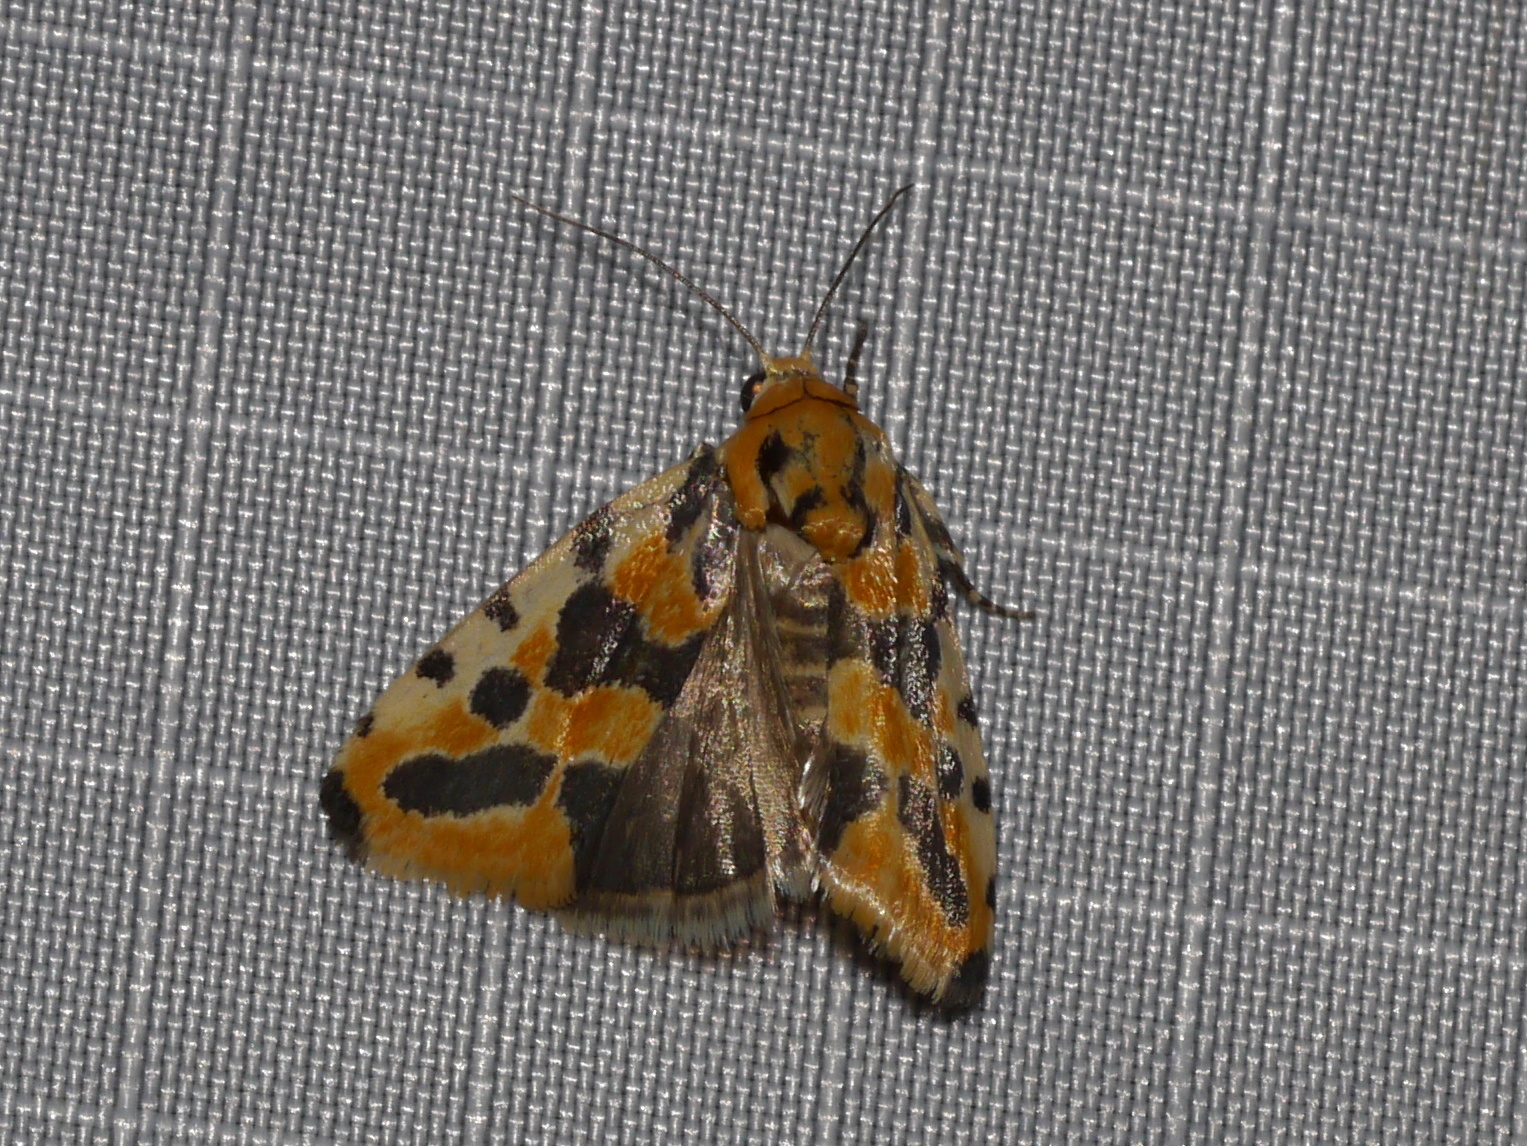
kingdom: Animalia
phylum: Arthropoda
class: Insecta
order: Lepidoptera
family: Noctuidae
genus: Acontia
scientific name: Acontia cleta
